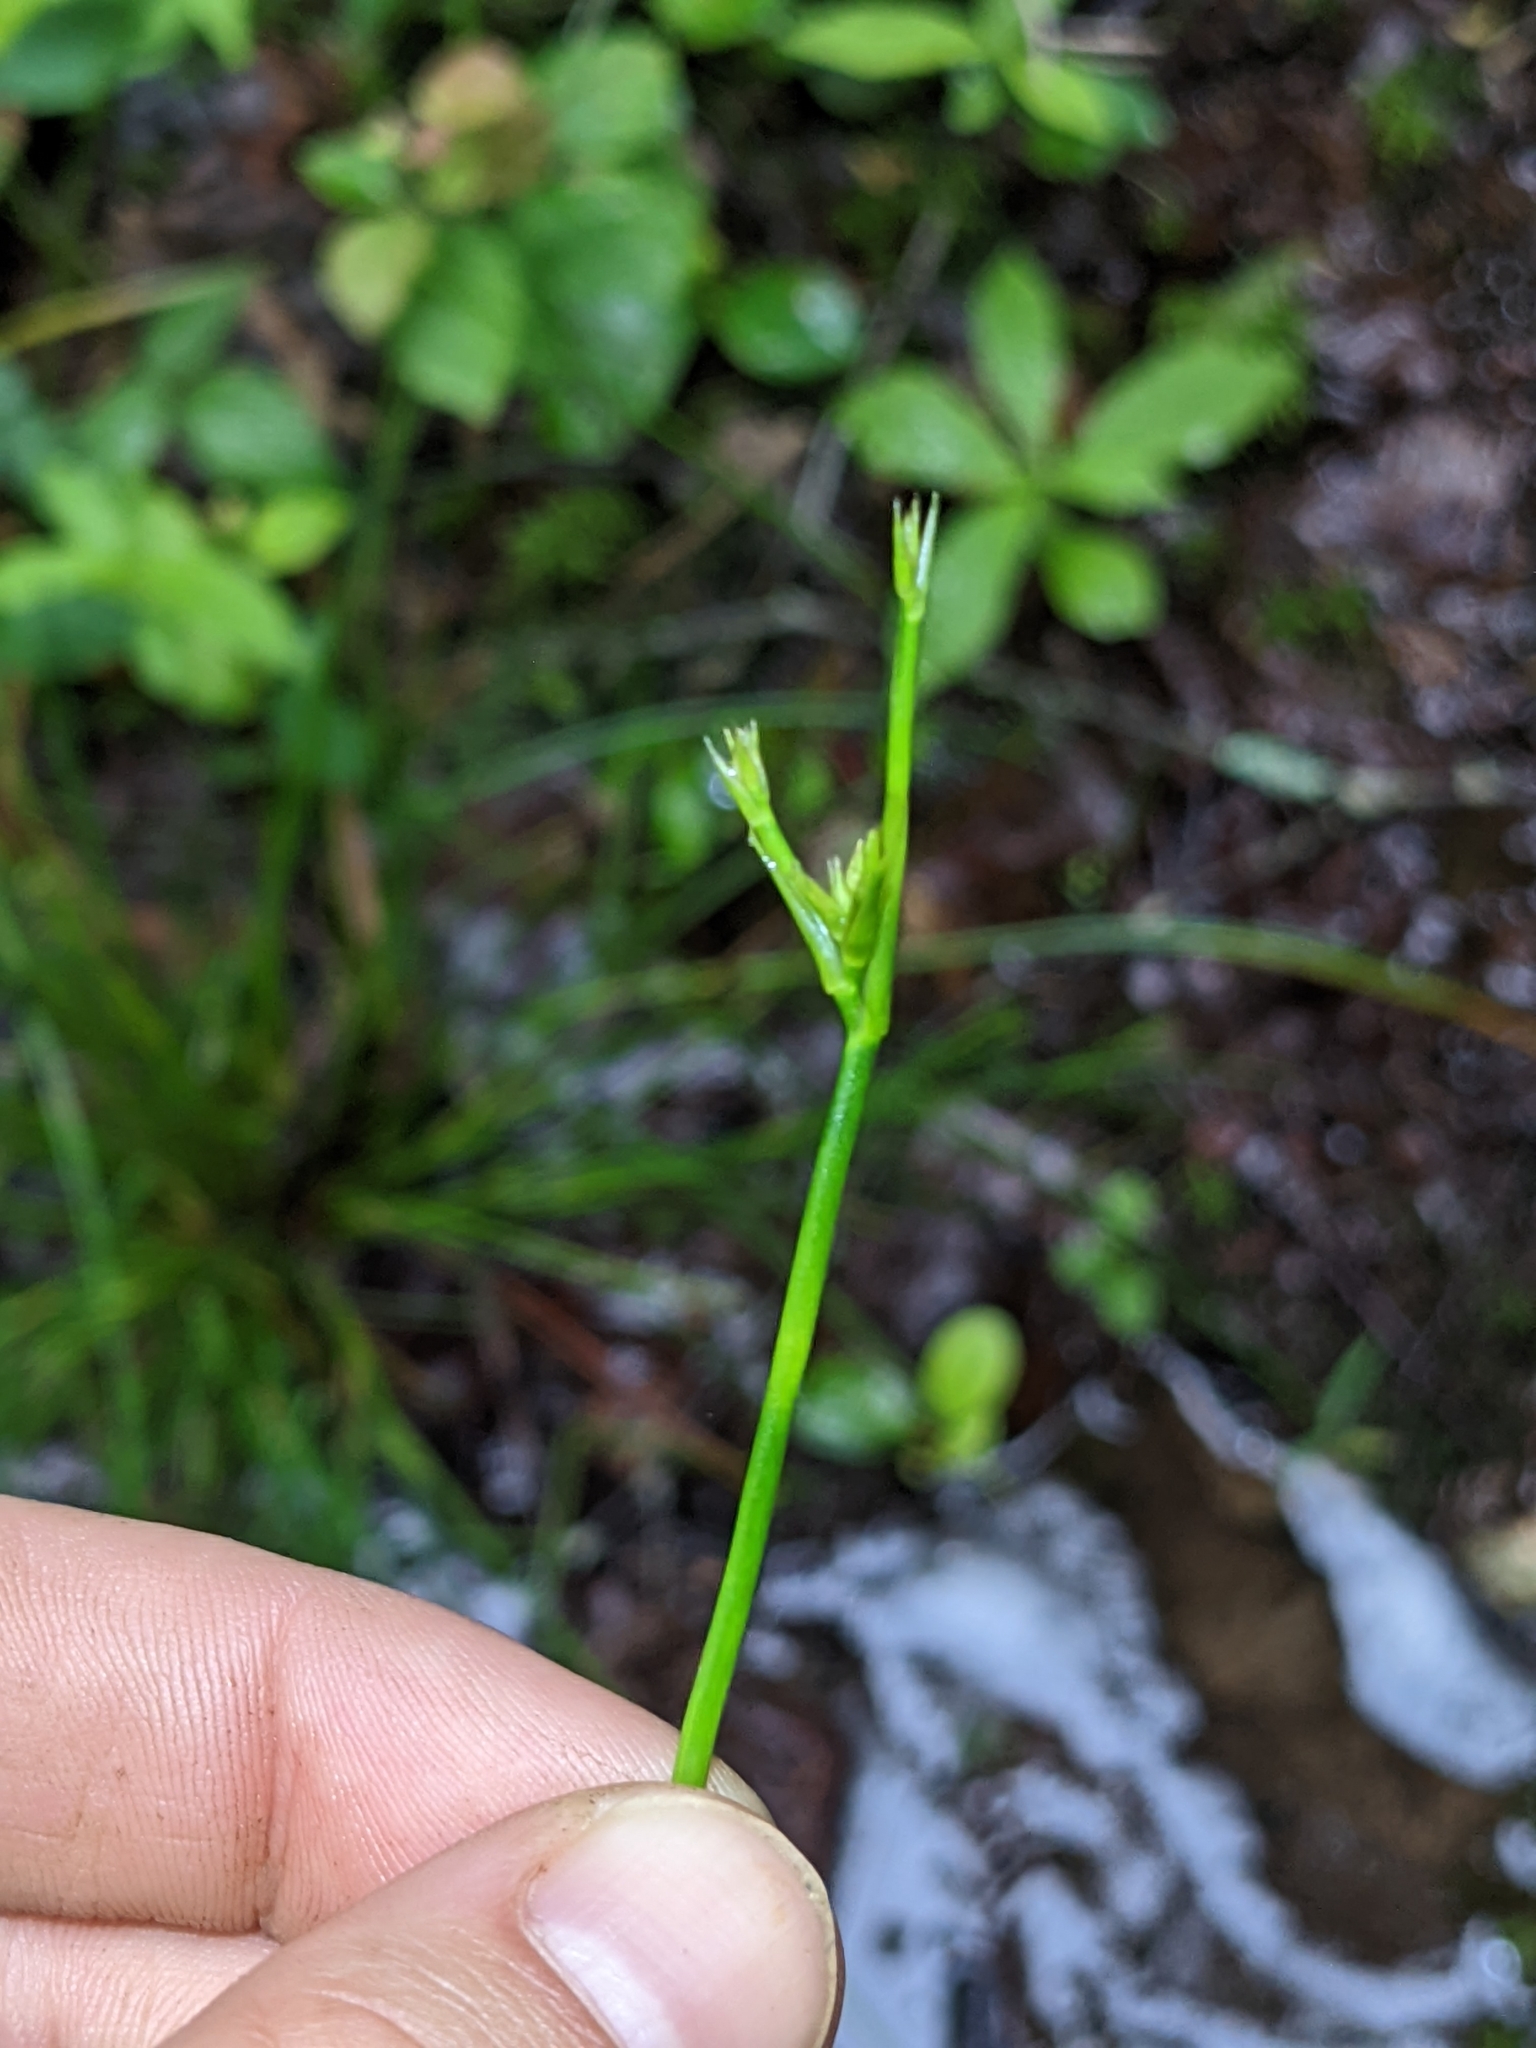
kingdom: Plantae
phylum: Tracheophyta
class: Liliopsida
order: Poales
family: Juncaceae
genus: Juncus
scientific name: Juncus effusus
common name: Soft rush
